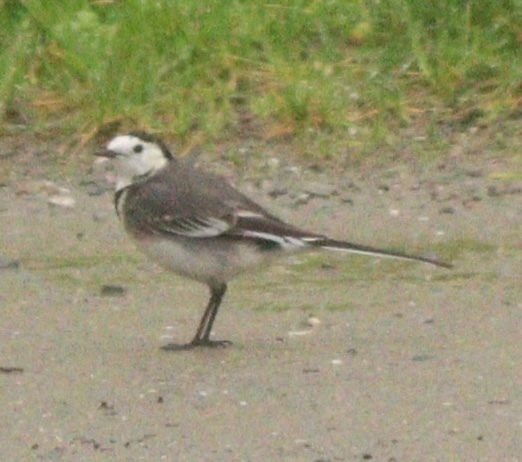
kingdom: Animalia
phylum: Chordata
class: Aves
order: Passeriformes
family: Motacillidae
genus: Motacilla
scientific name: Motacilla alba
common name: White wagtail
